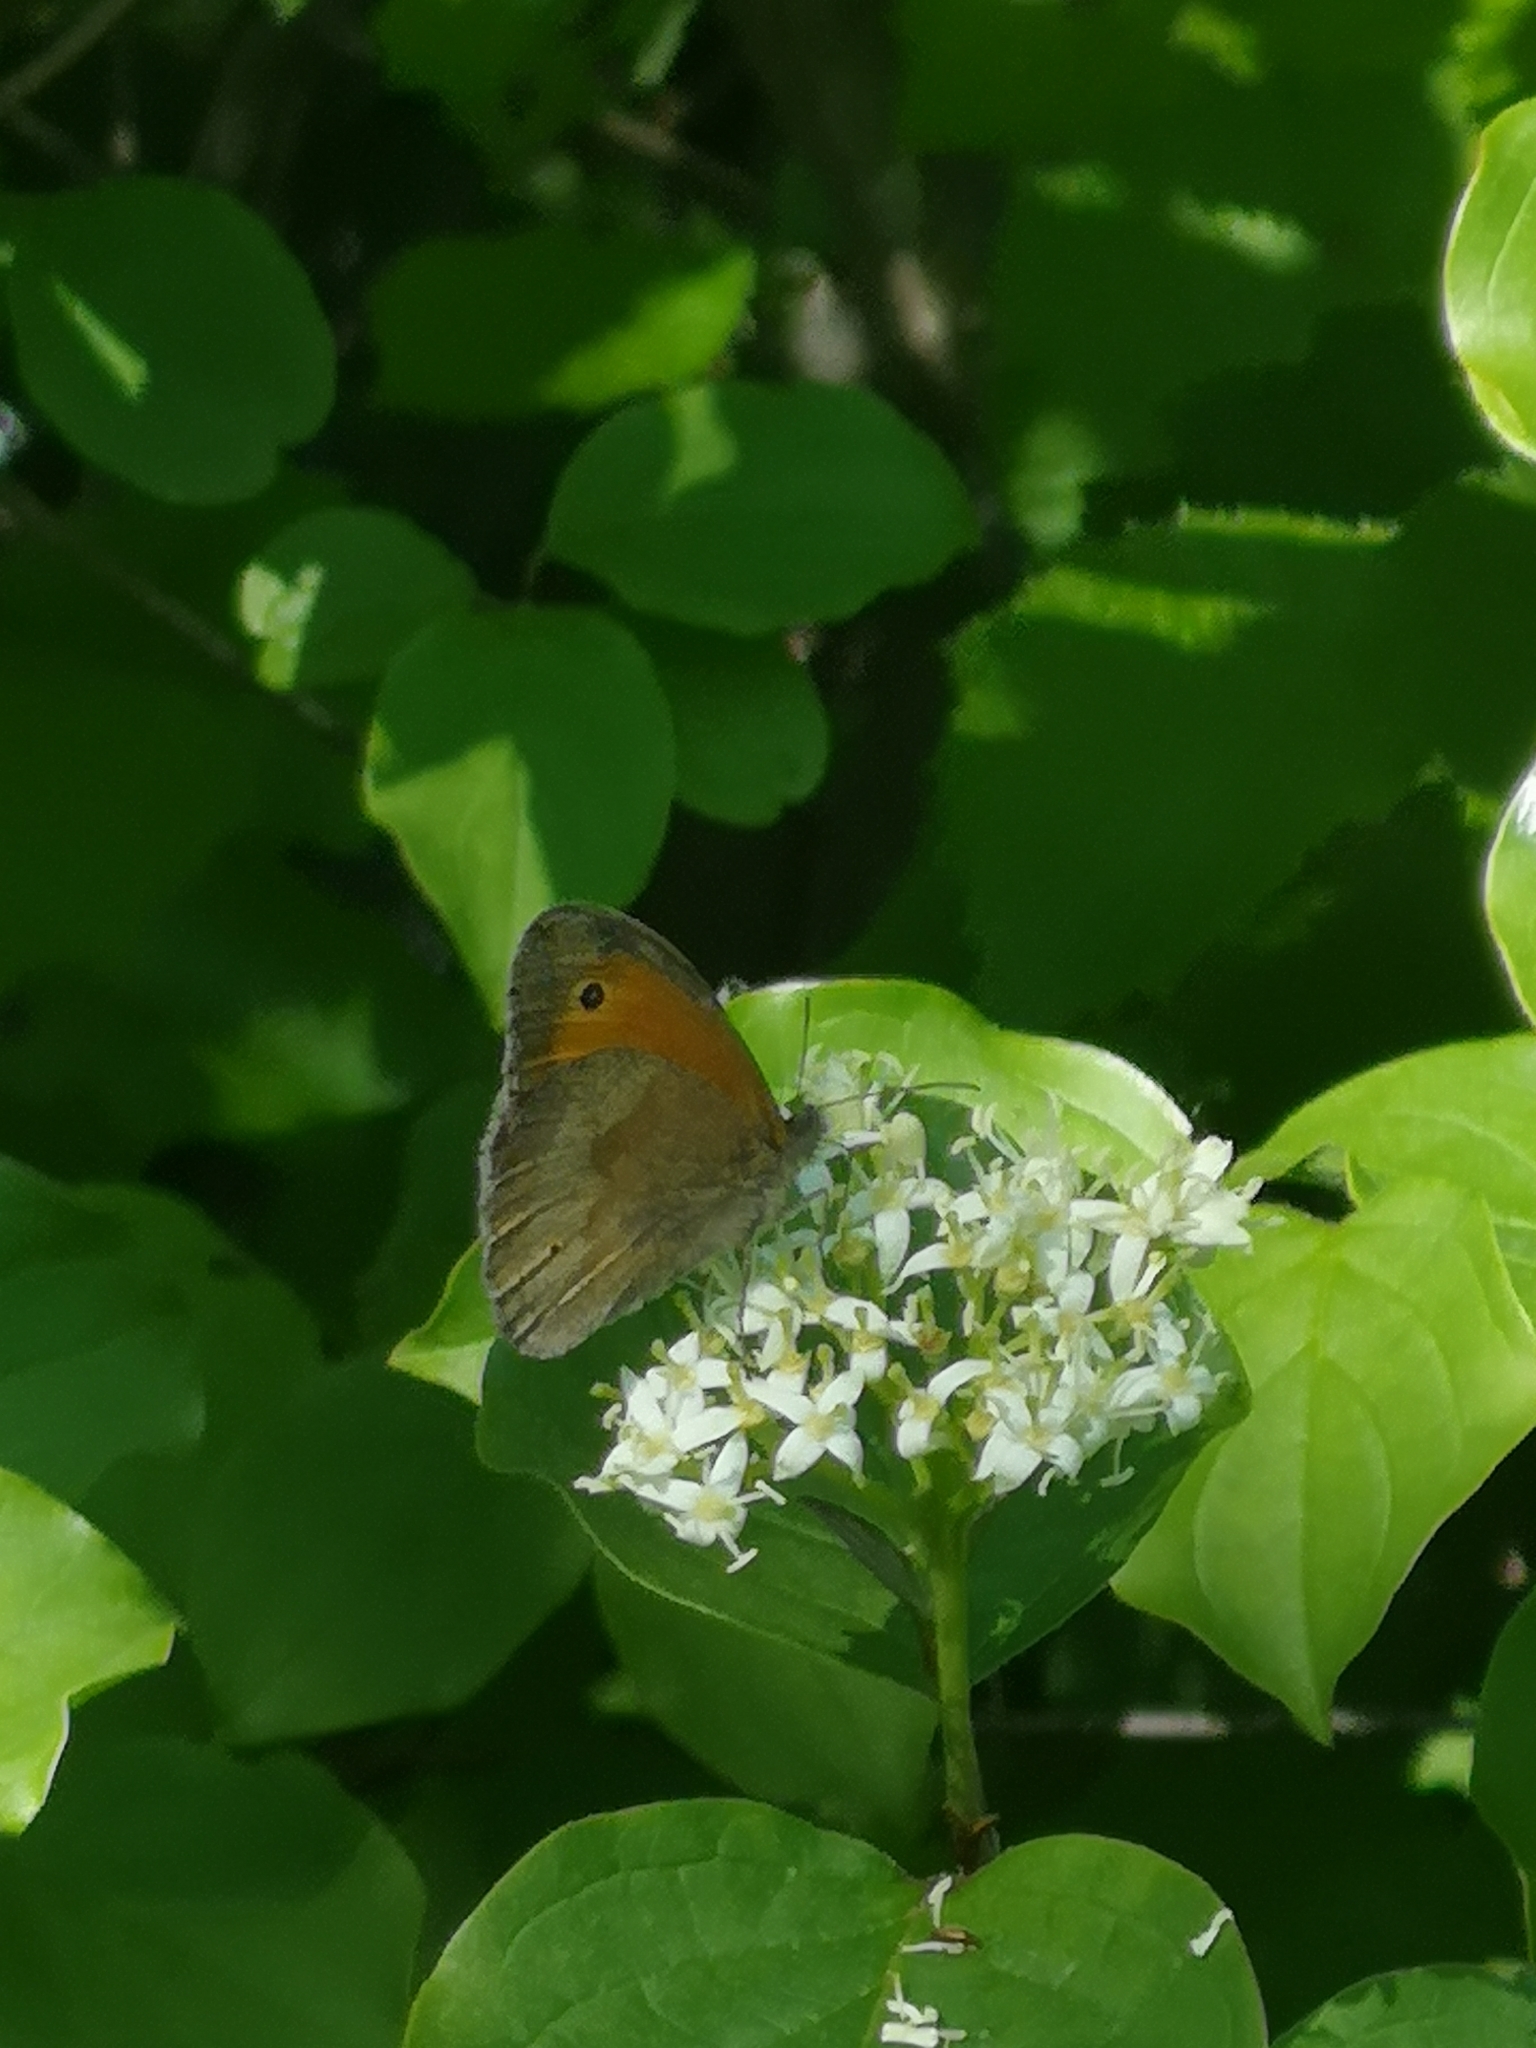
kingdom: Animalia
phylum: Arthropoda
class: Insecta
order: Lepidoptera
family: Nymphalidae
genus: Maniola
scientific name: Maniola jurtina
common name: Meadow brown
